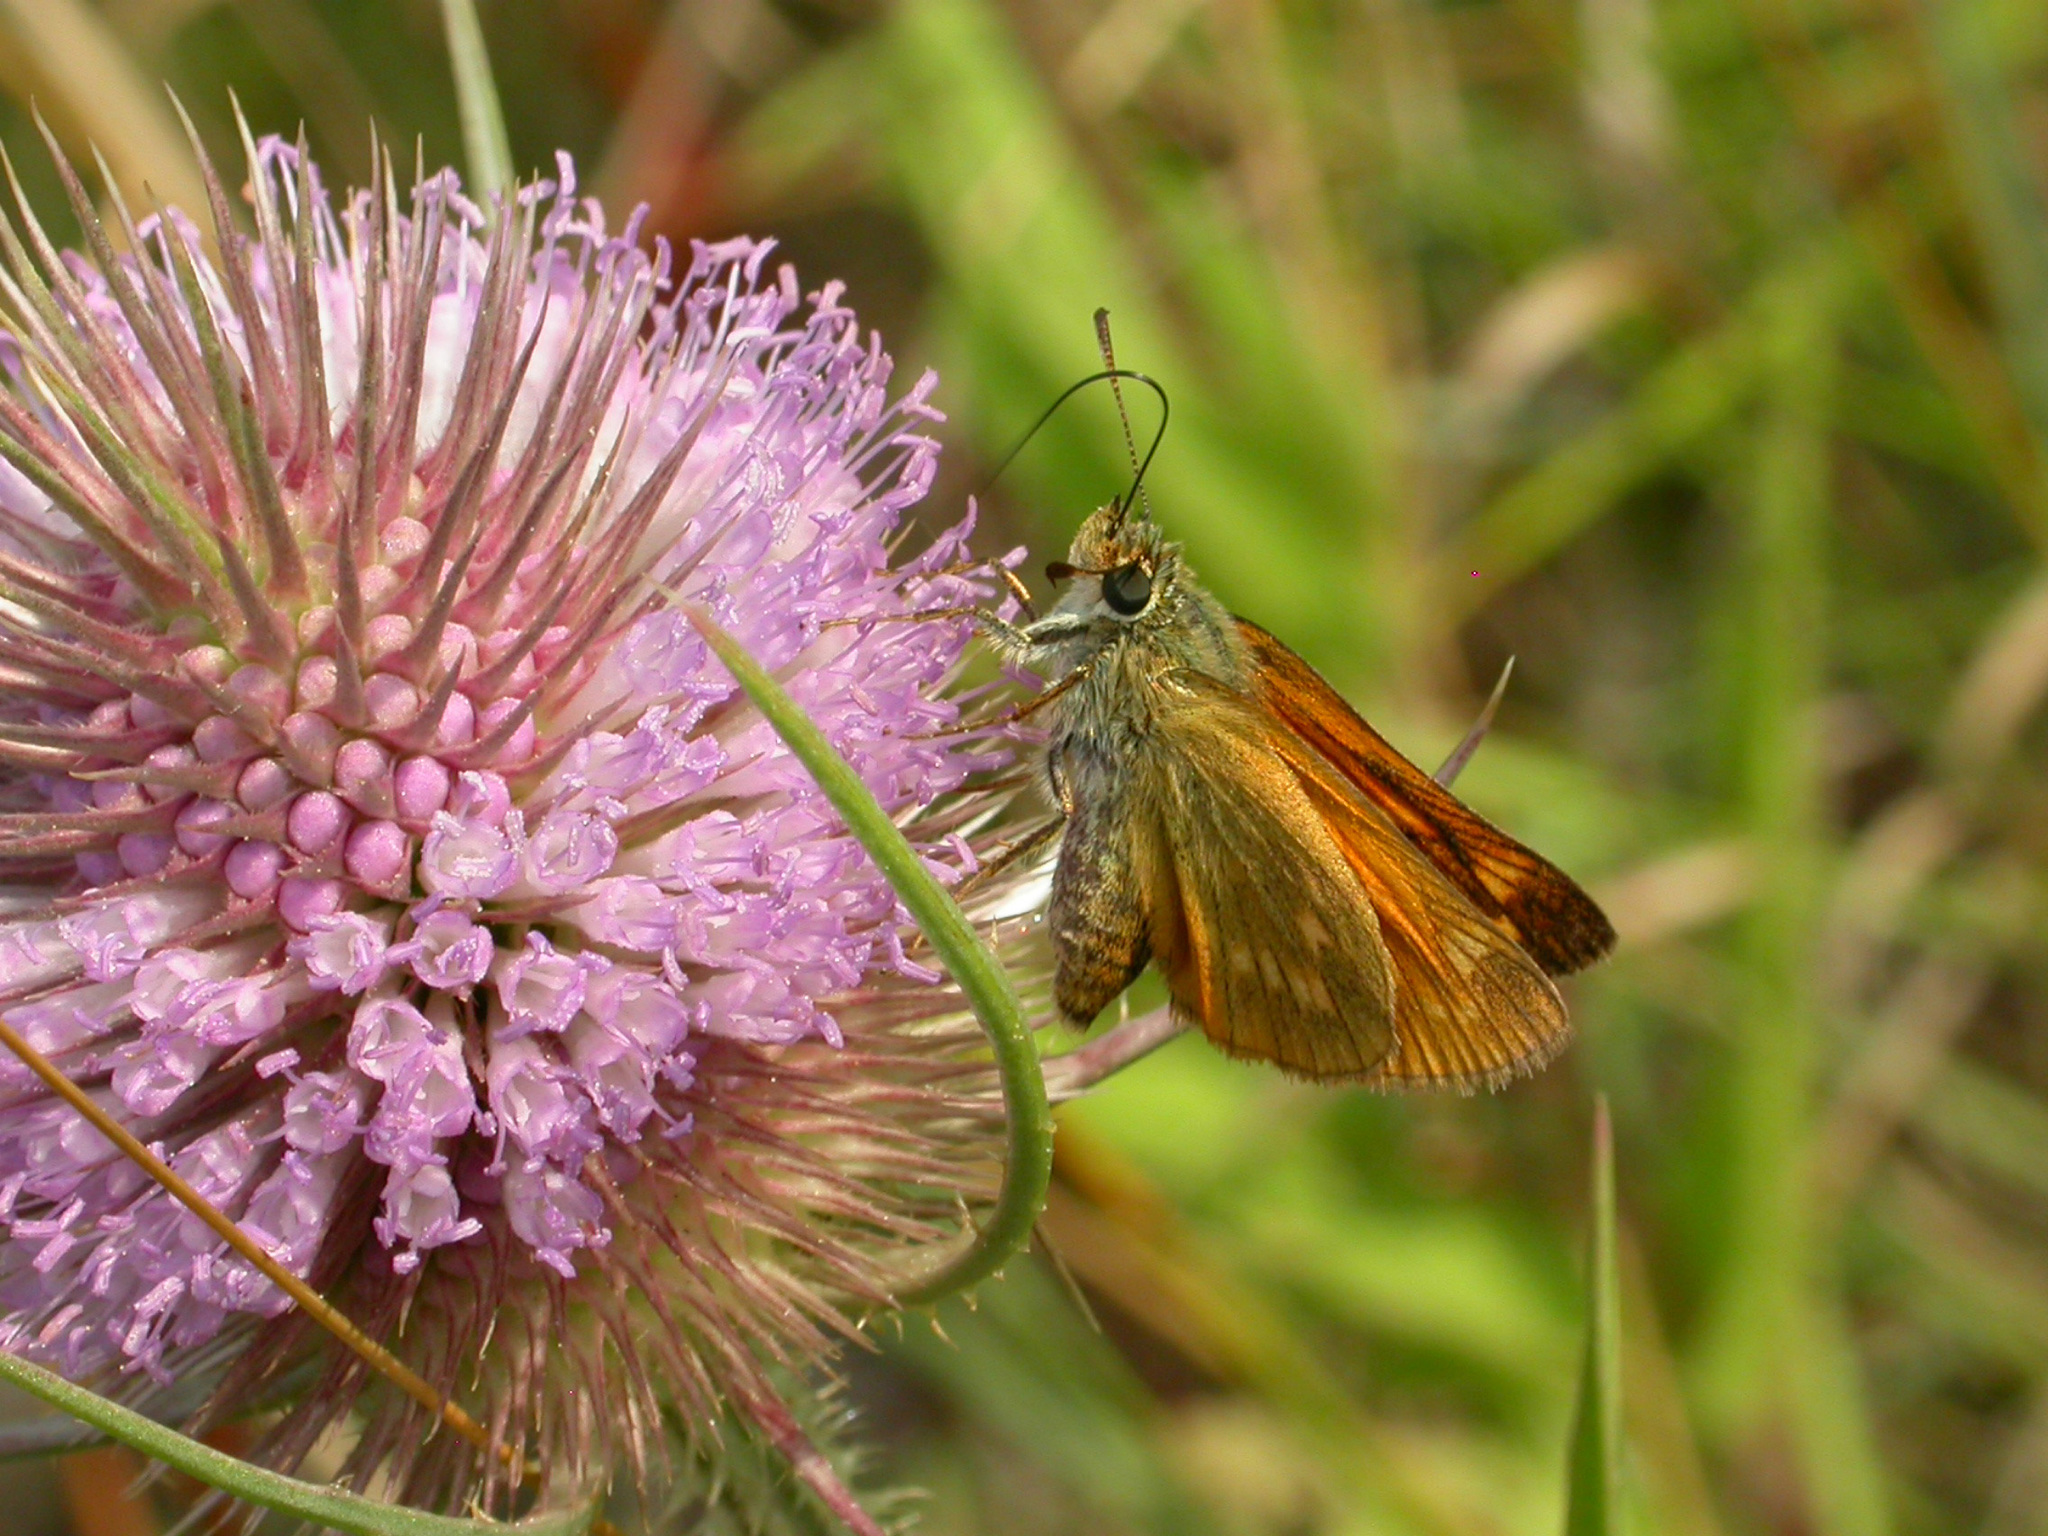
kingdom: Animalia
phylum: Arthropoda
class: Insecta
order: Lepidoptera
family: Hesperiidae
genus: Ochlodes
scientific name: Ochlodes venata
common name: Large skipper
